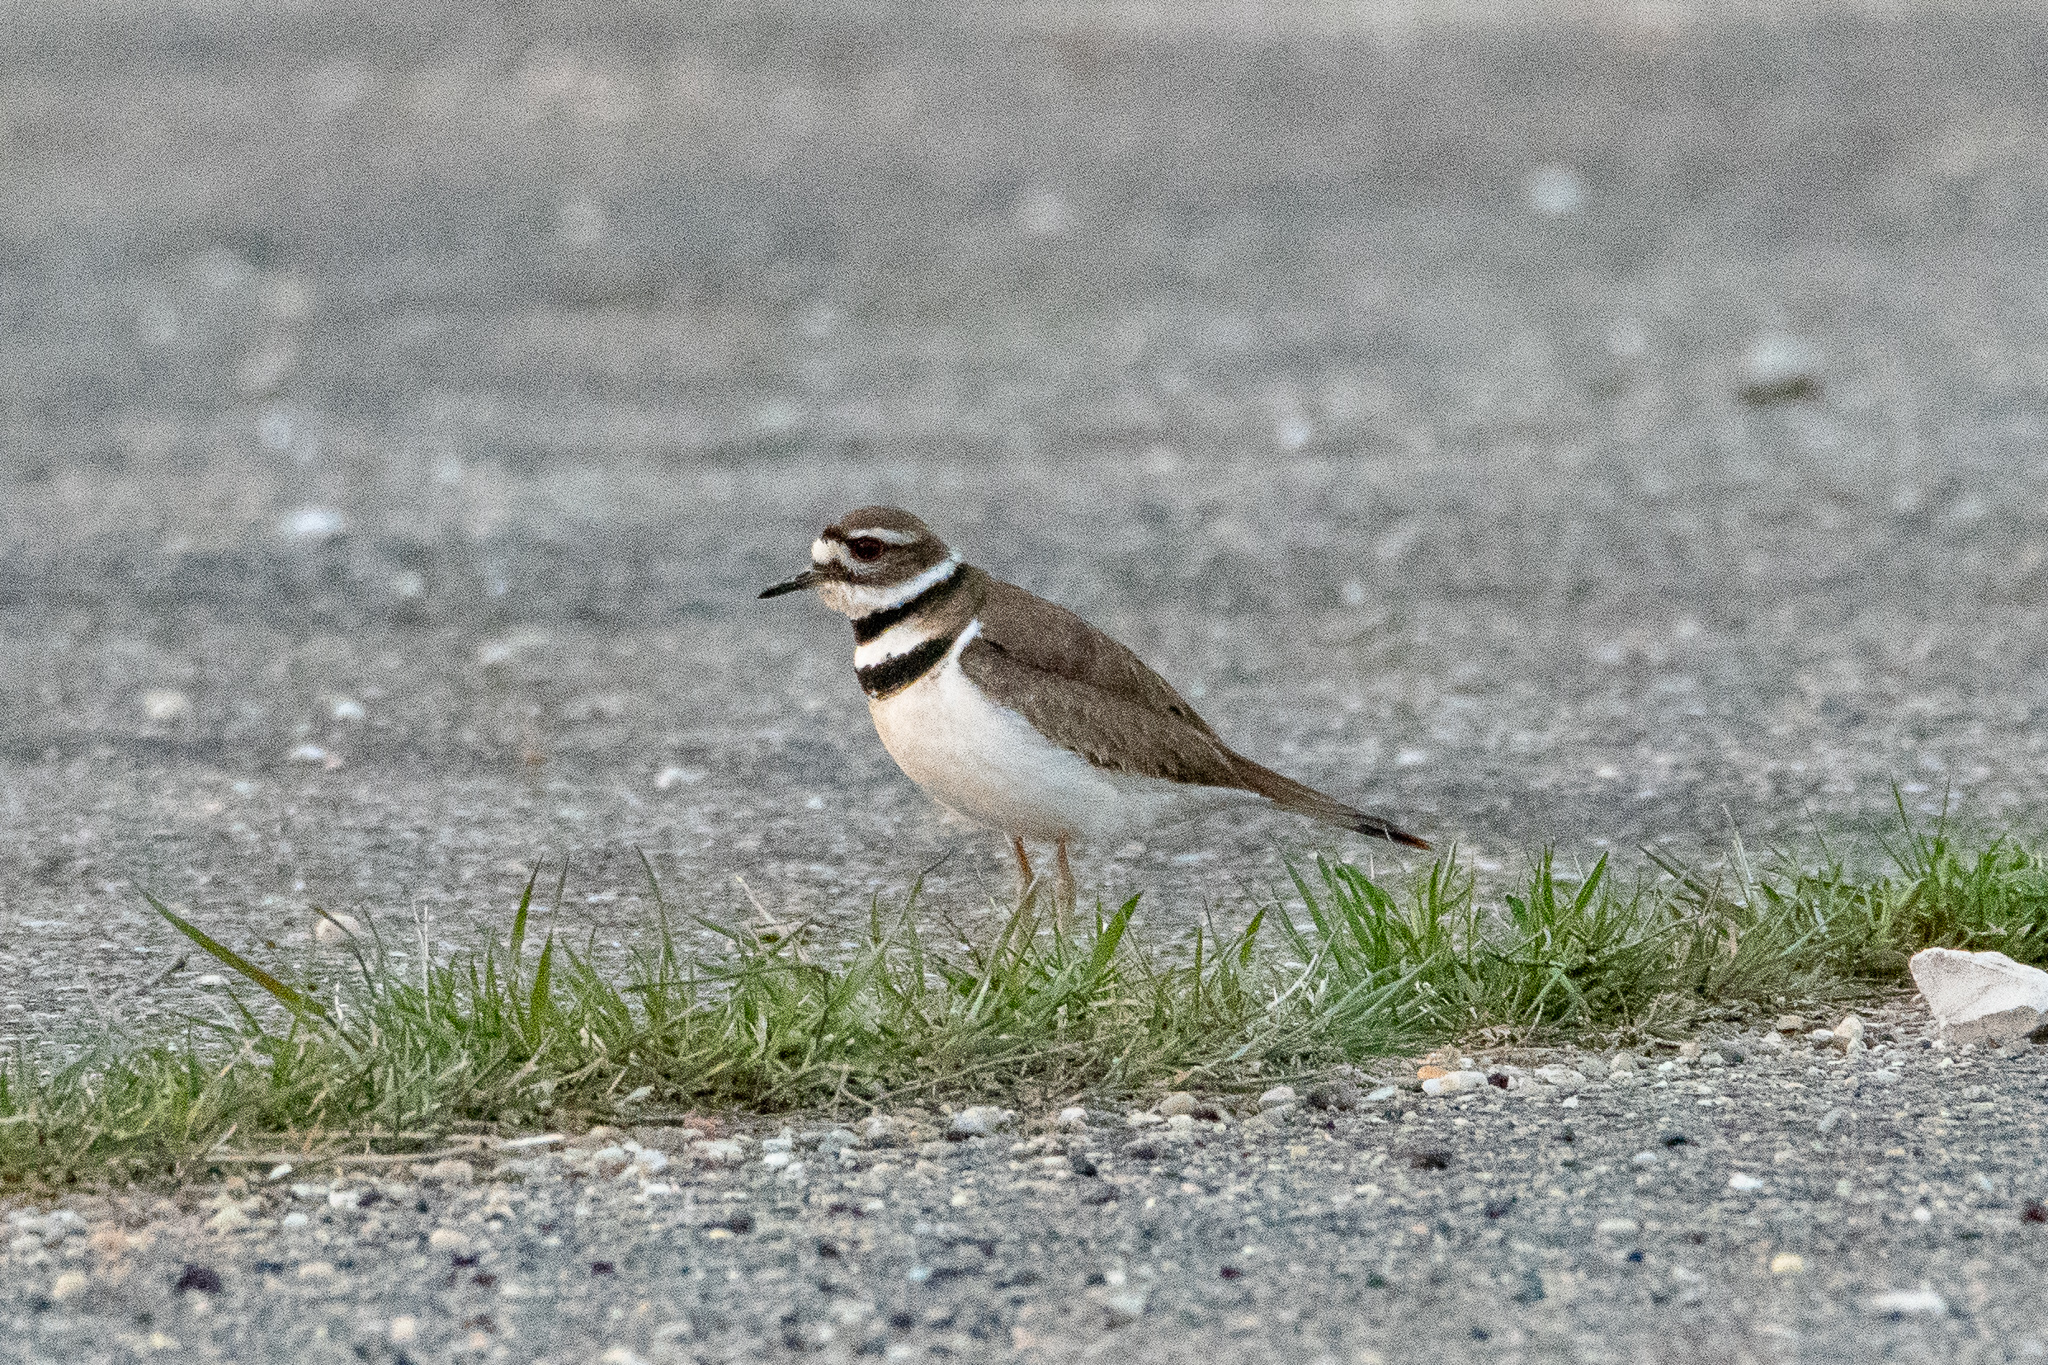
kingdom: Animalia
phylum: Chordata
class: Aves
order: Charadriiformes
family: Charadriidae
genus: Charadrius
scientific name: Charadrius vociferus
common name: Killdeer
